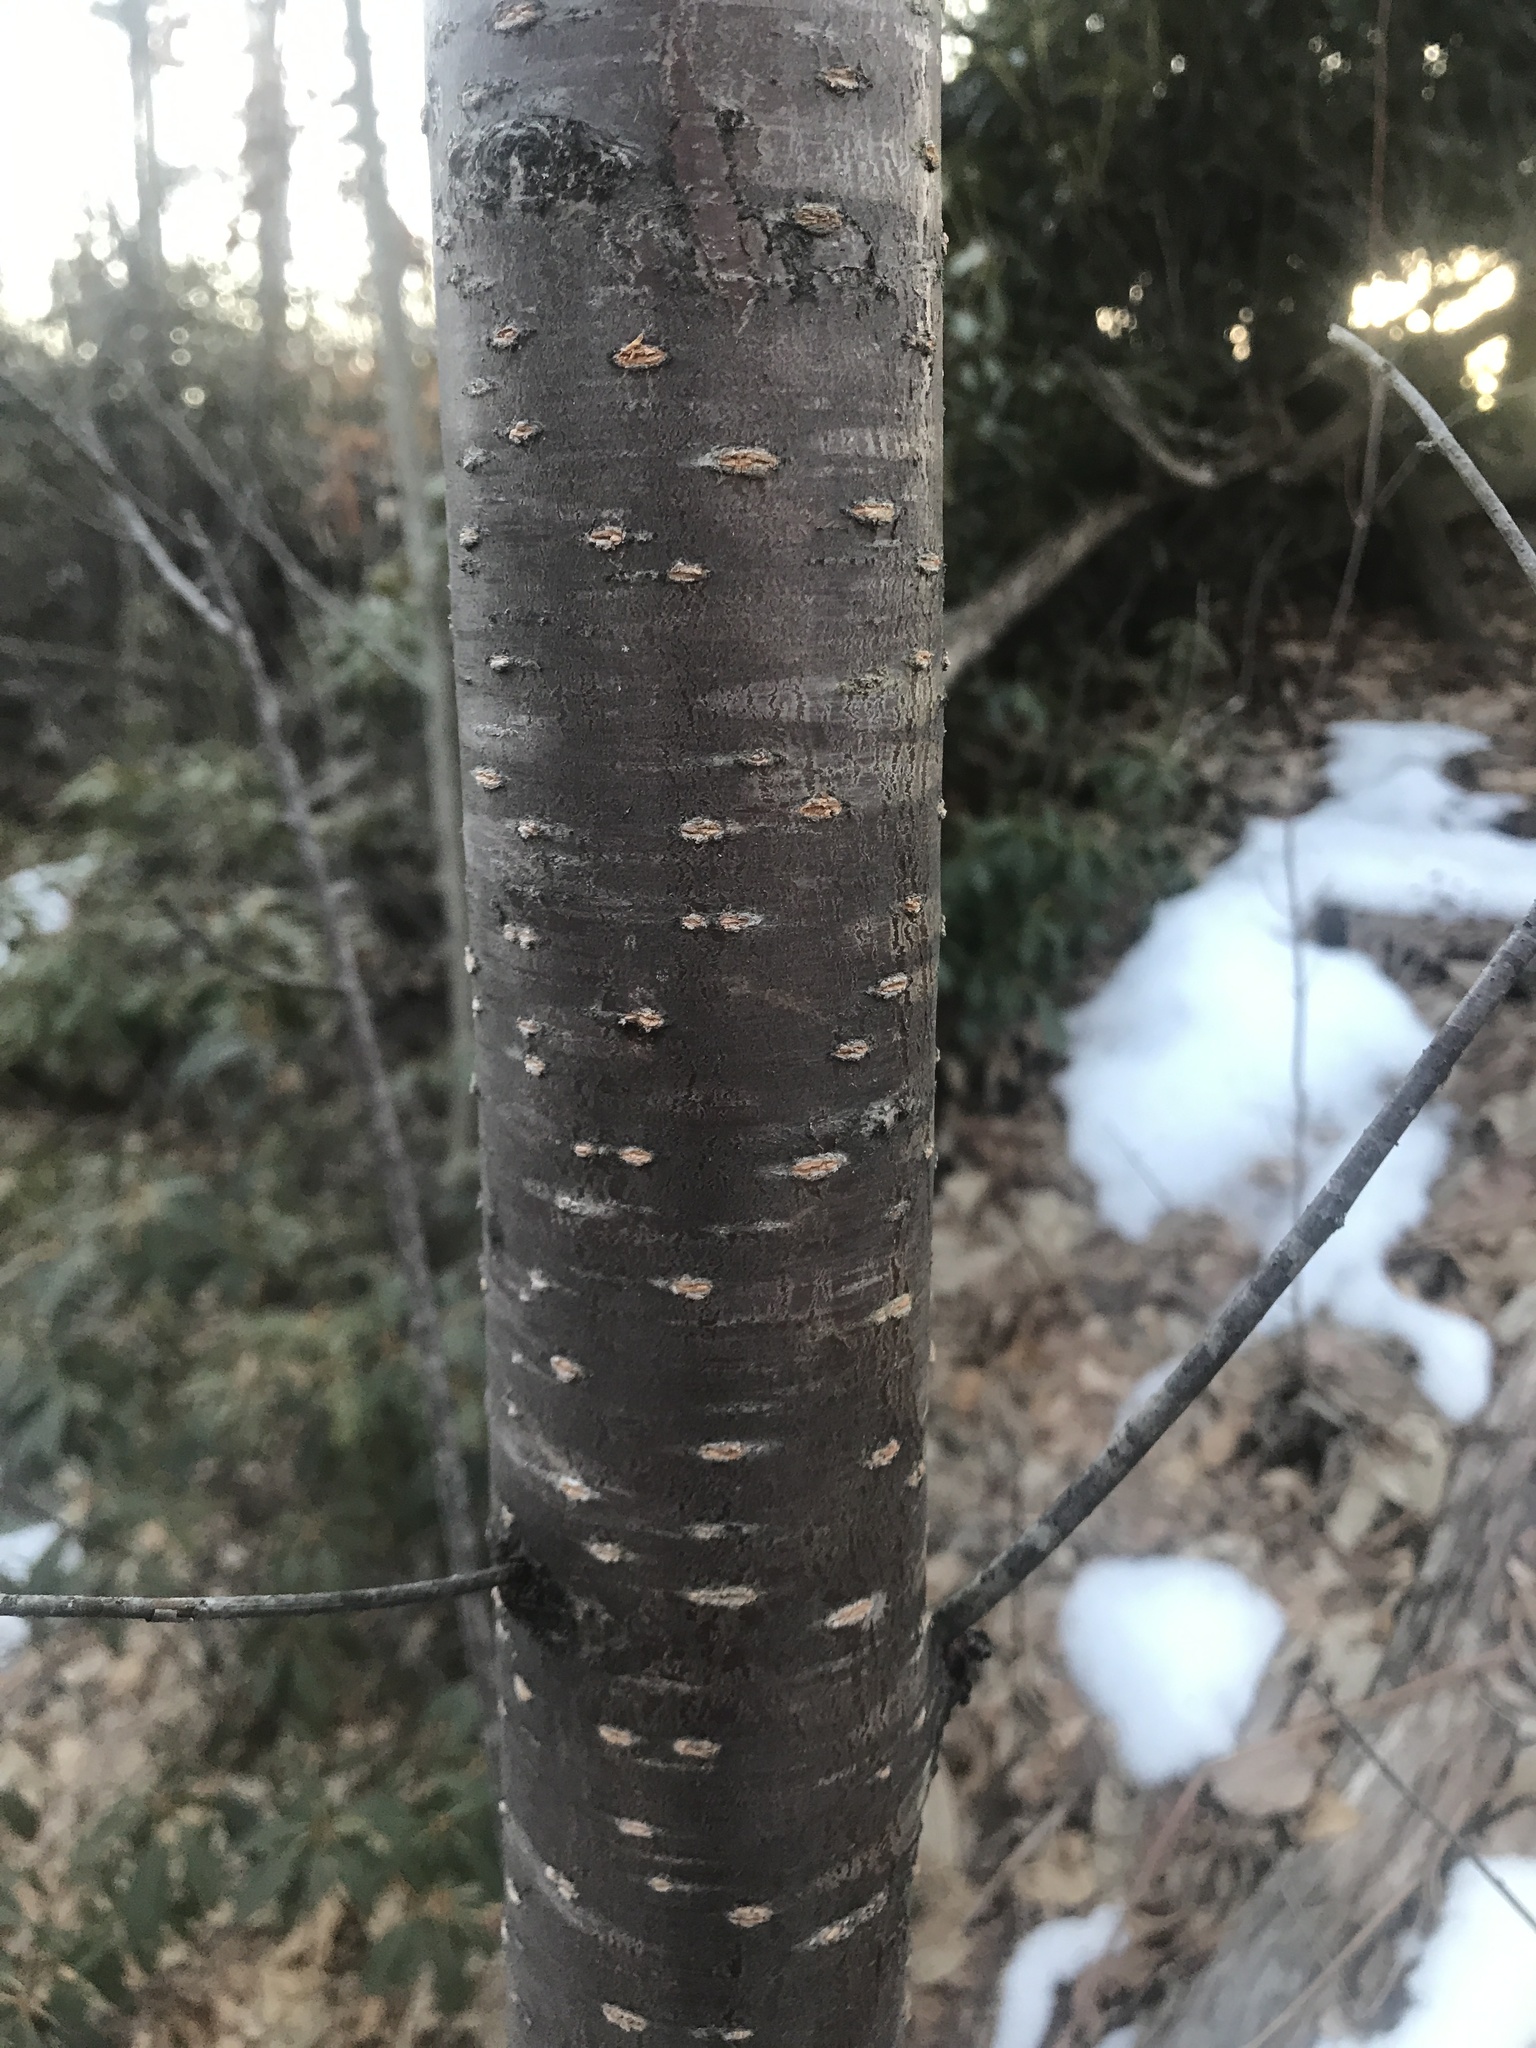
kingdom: Plantae
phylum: Tracheophyta
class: Magnoliopsida
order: Rosales
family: Rosaceae
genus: Prunus
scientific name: Prunus pensylvanica
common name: Pin cherry
